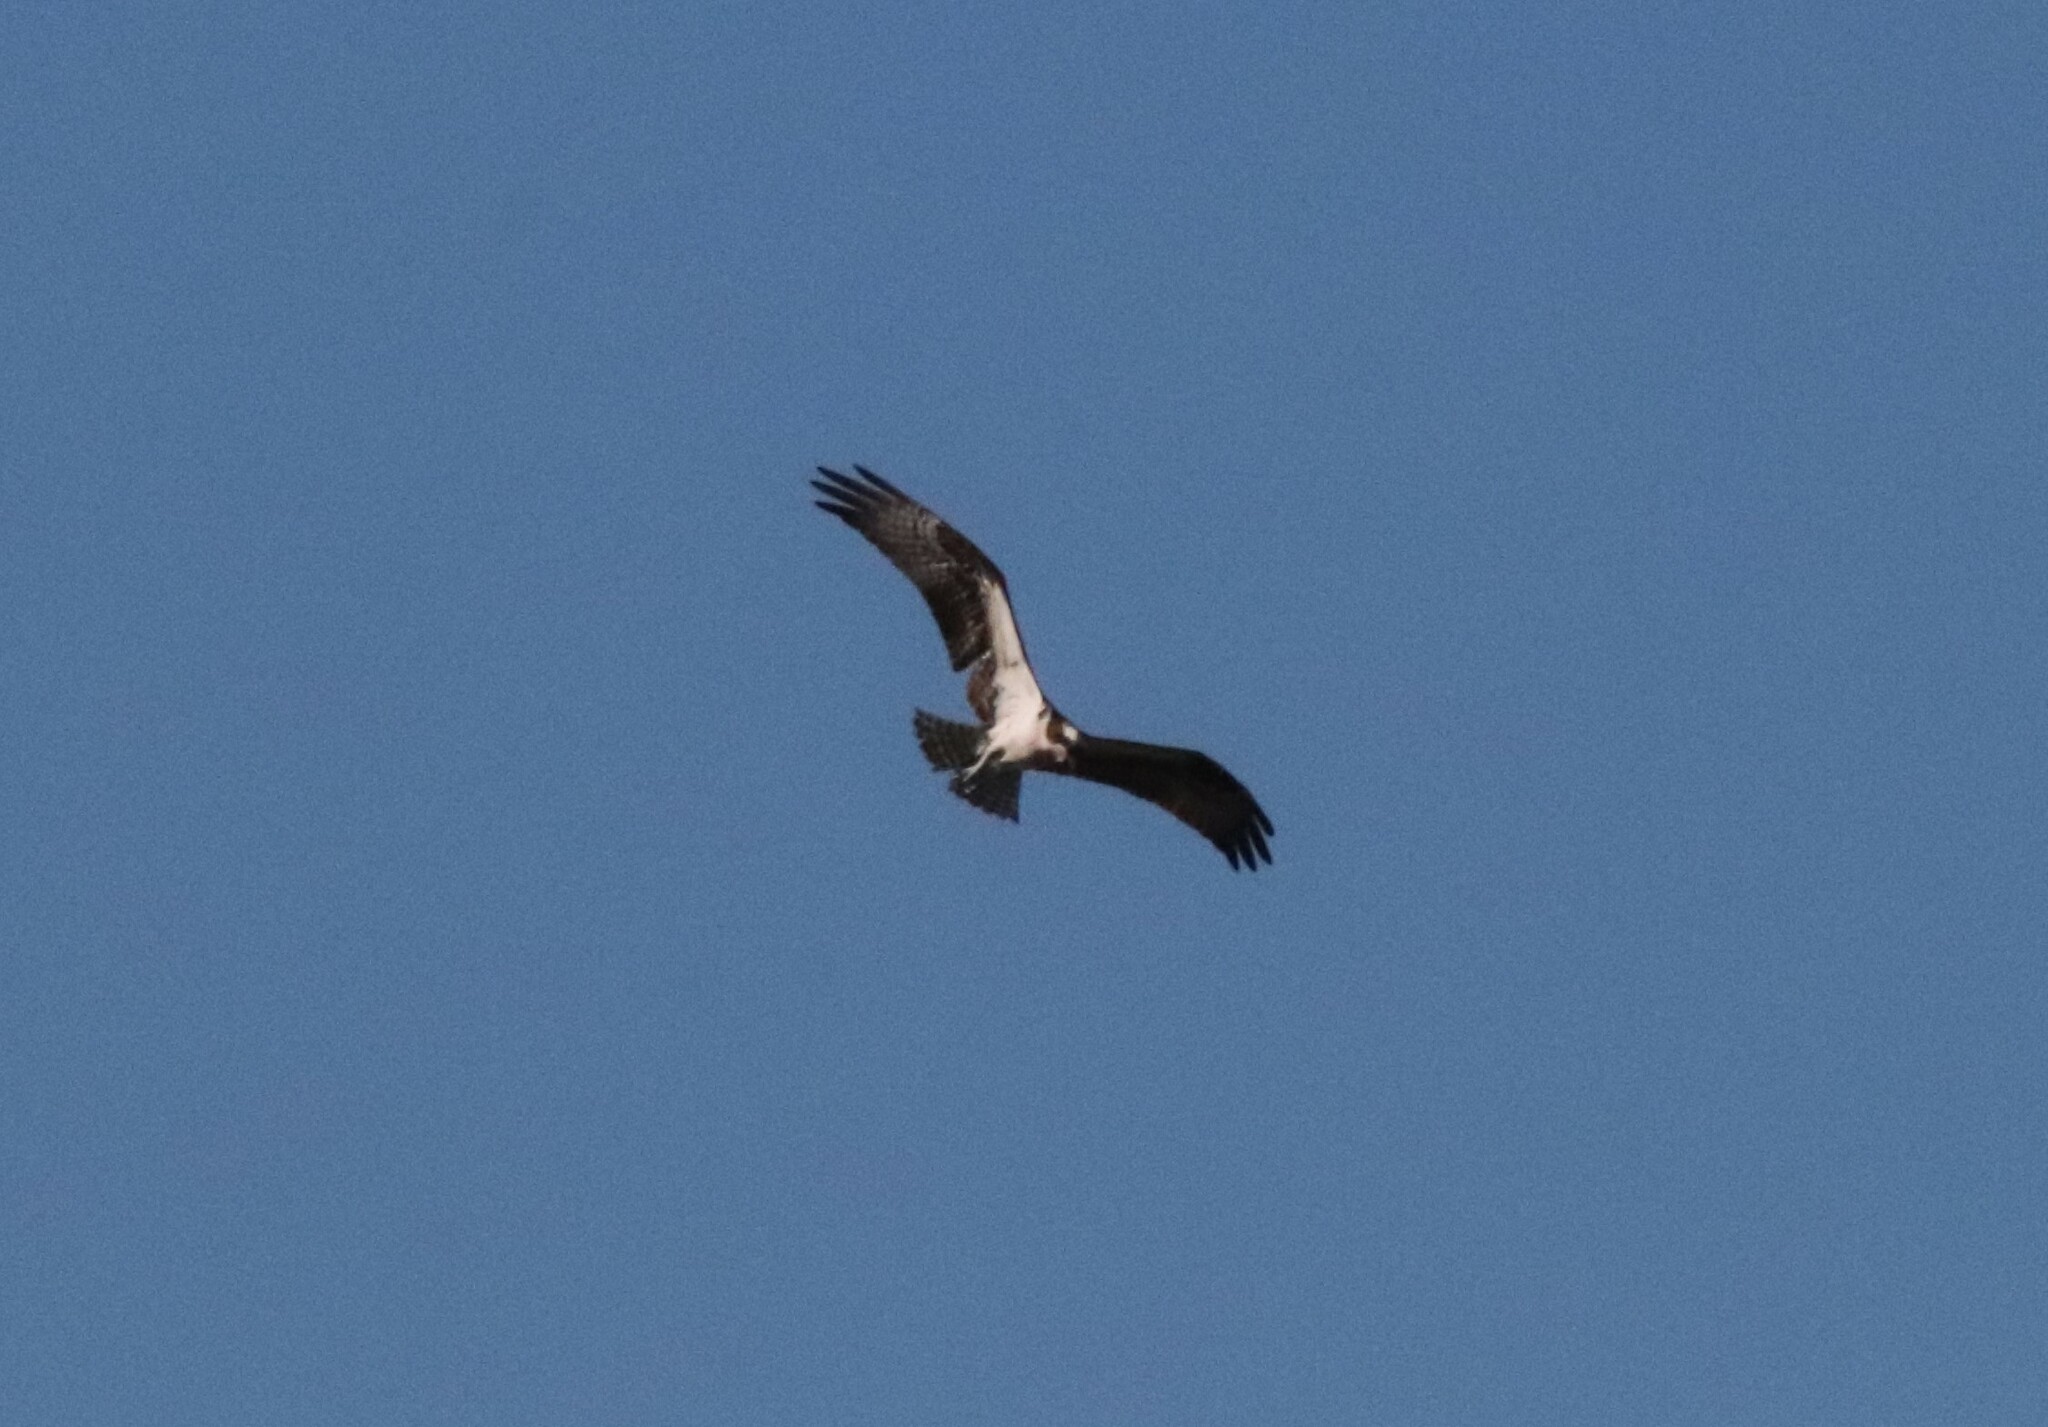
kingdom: Animalia
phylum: Chordata
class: Aves
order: Accipitriformes
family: Pandionidae
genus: Pandion
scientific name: Pandion haliaetus
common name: Osprey
